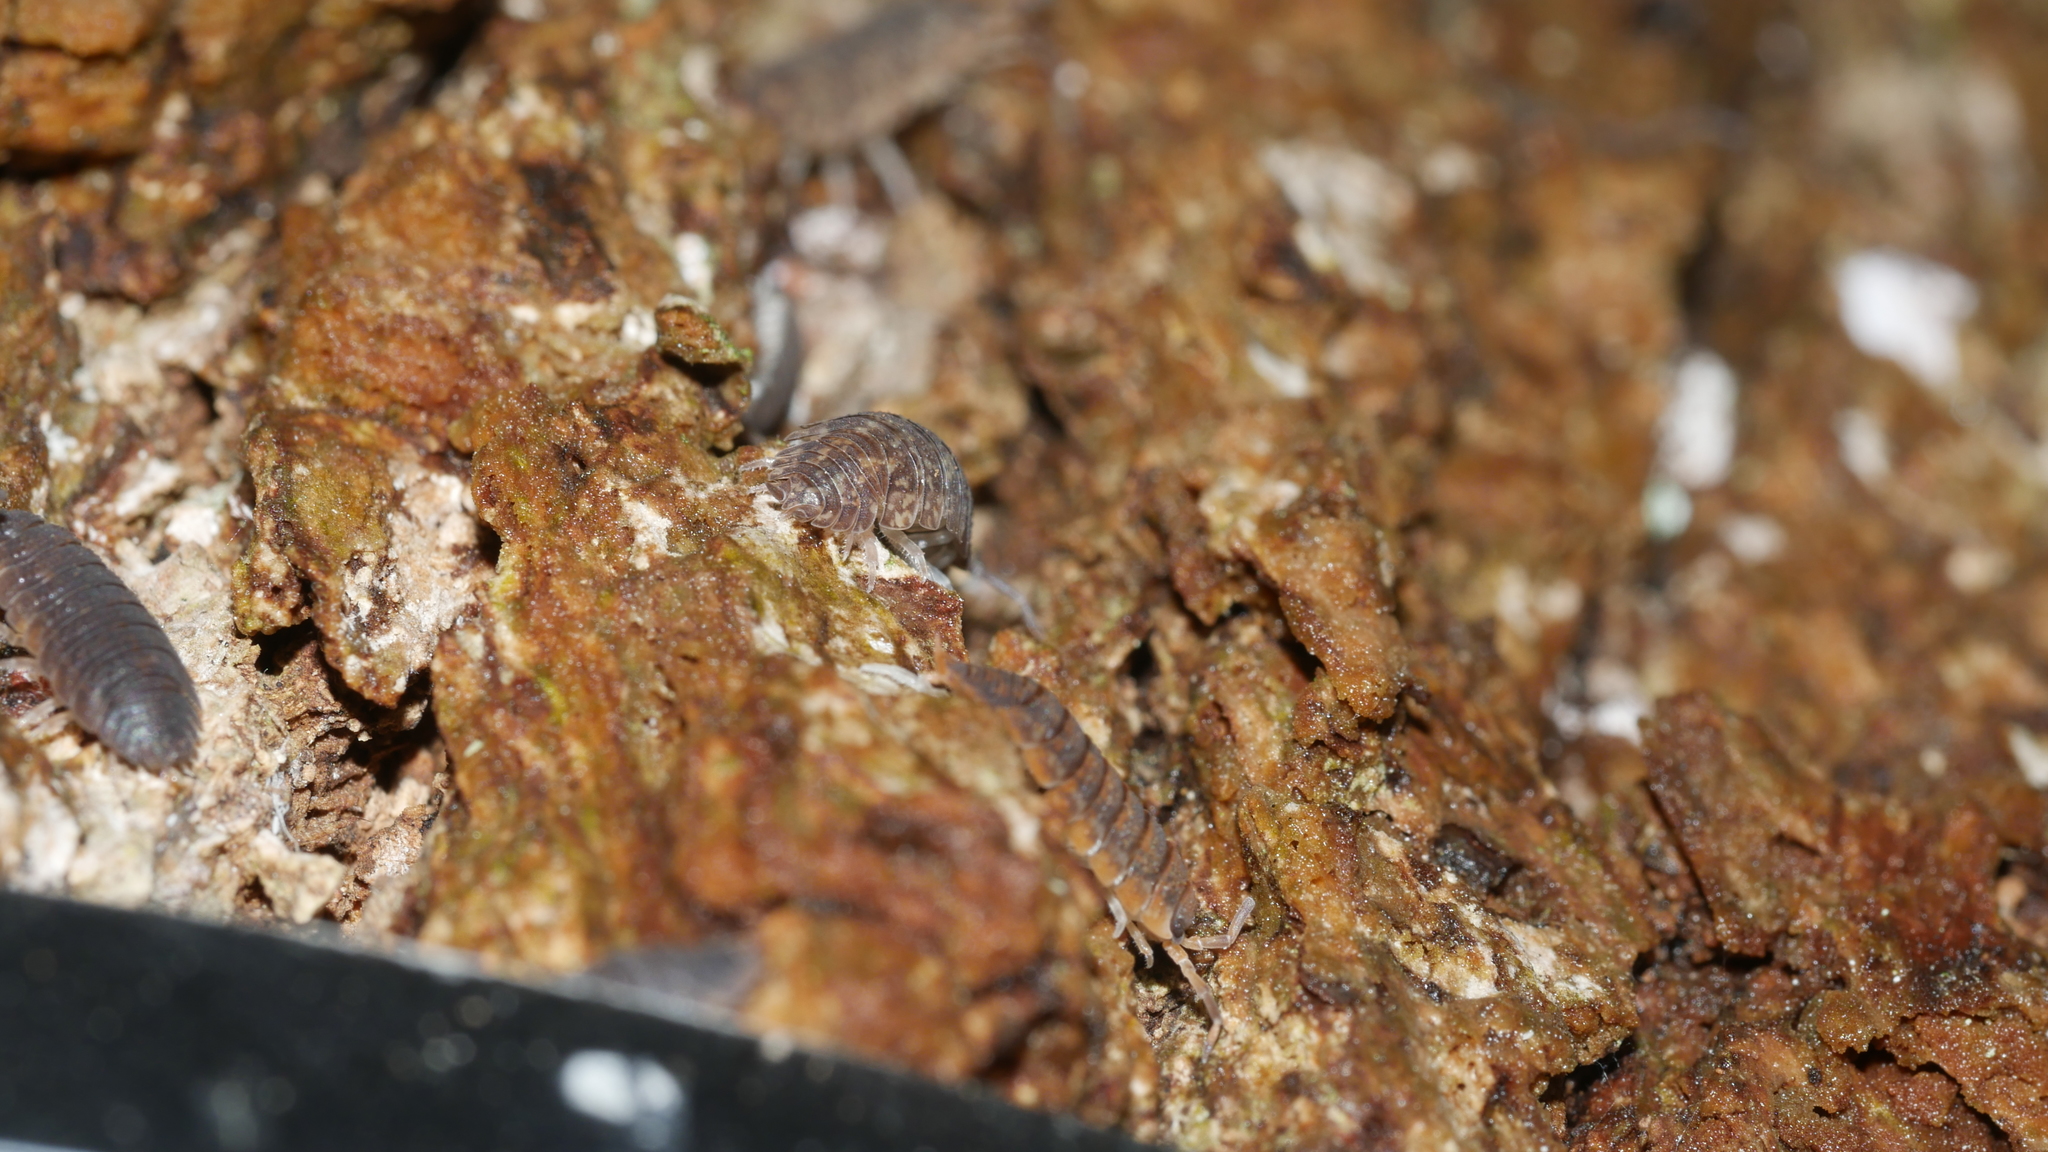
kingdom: Animalia
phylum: Arthropoda
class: Malacostraca
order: Isopoda
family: Porcellionidae
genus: Porcellio
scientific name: Porcellio scaber
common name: Common rough woodlouse
